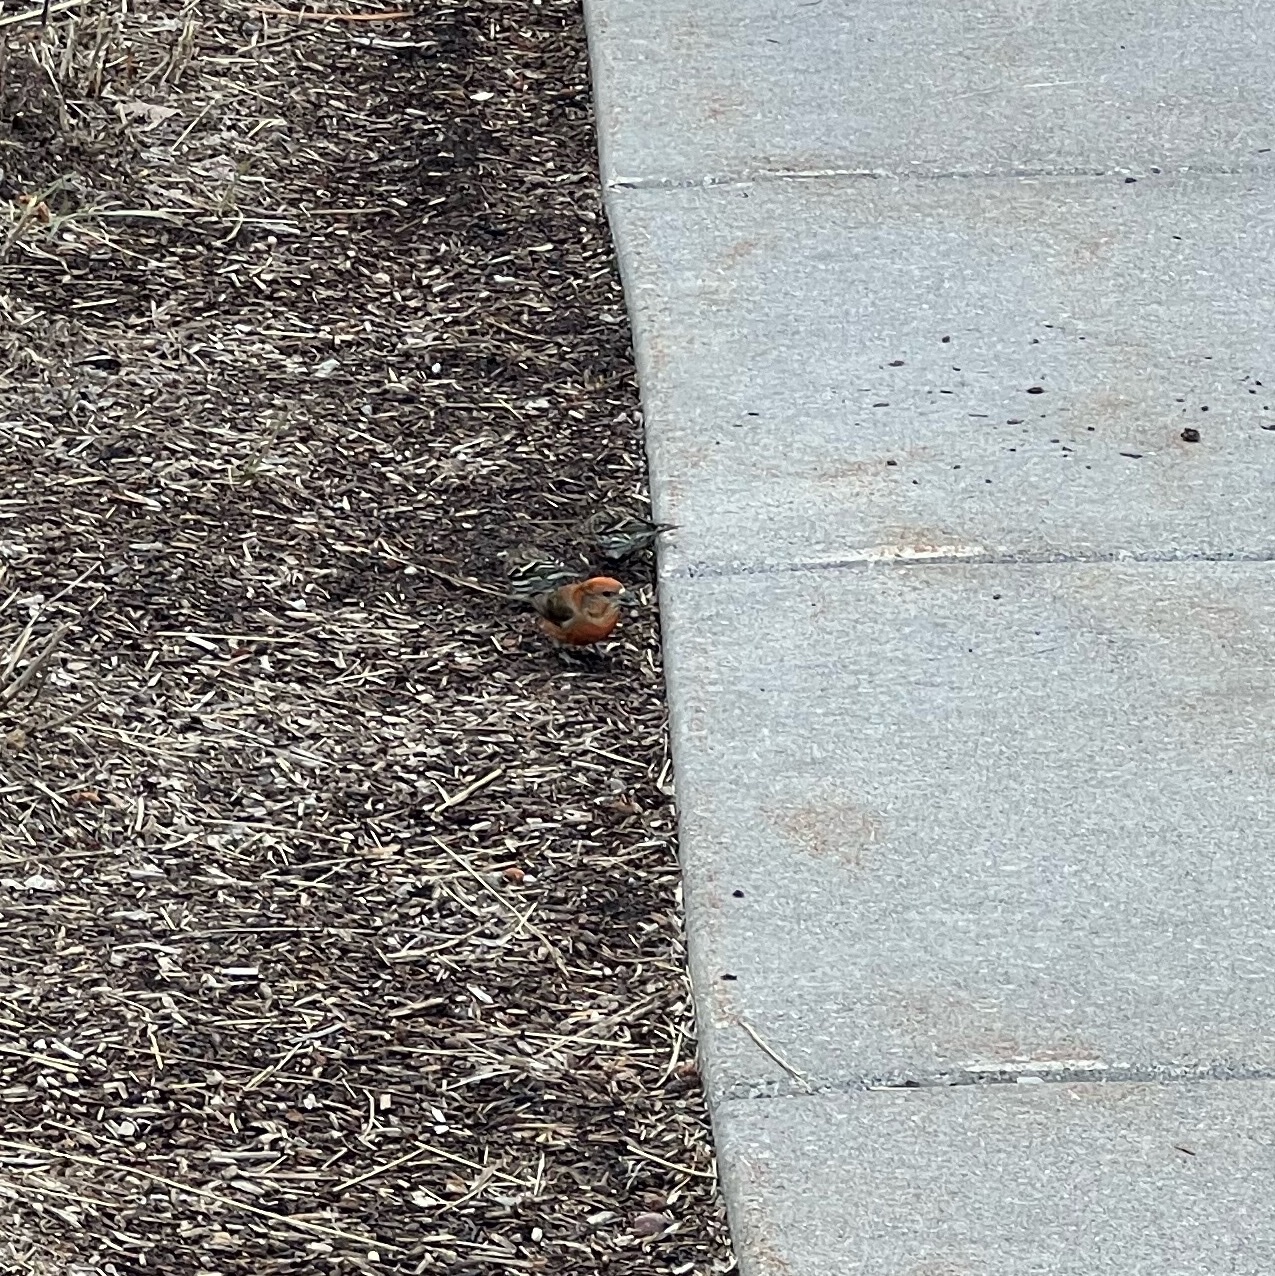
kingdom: Animalia
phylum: Chordata
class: Aves
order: Passeriformes
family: Fringillidae
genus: Loxia
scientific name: Loxia curvirostra
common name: Red crossbill
